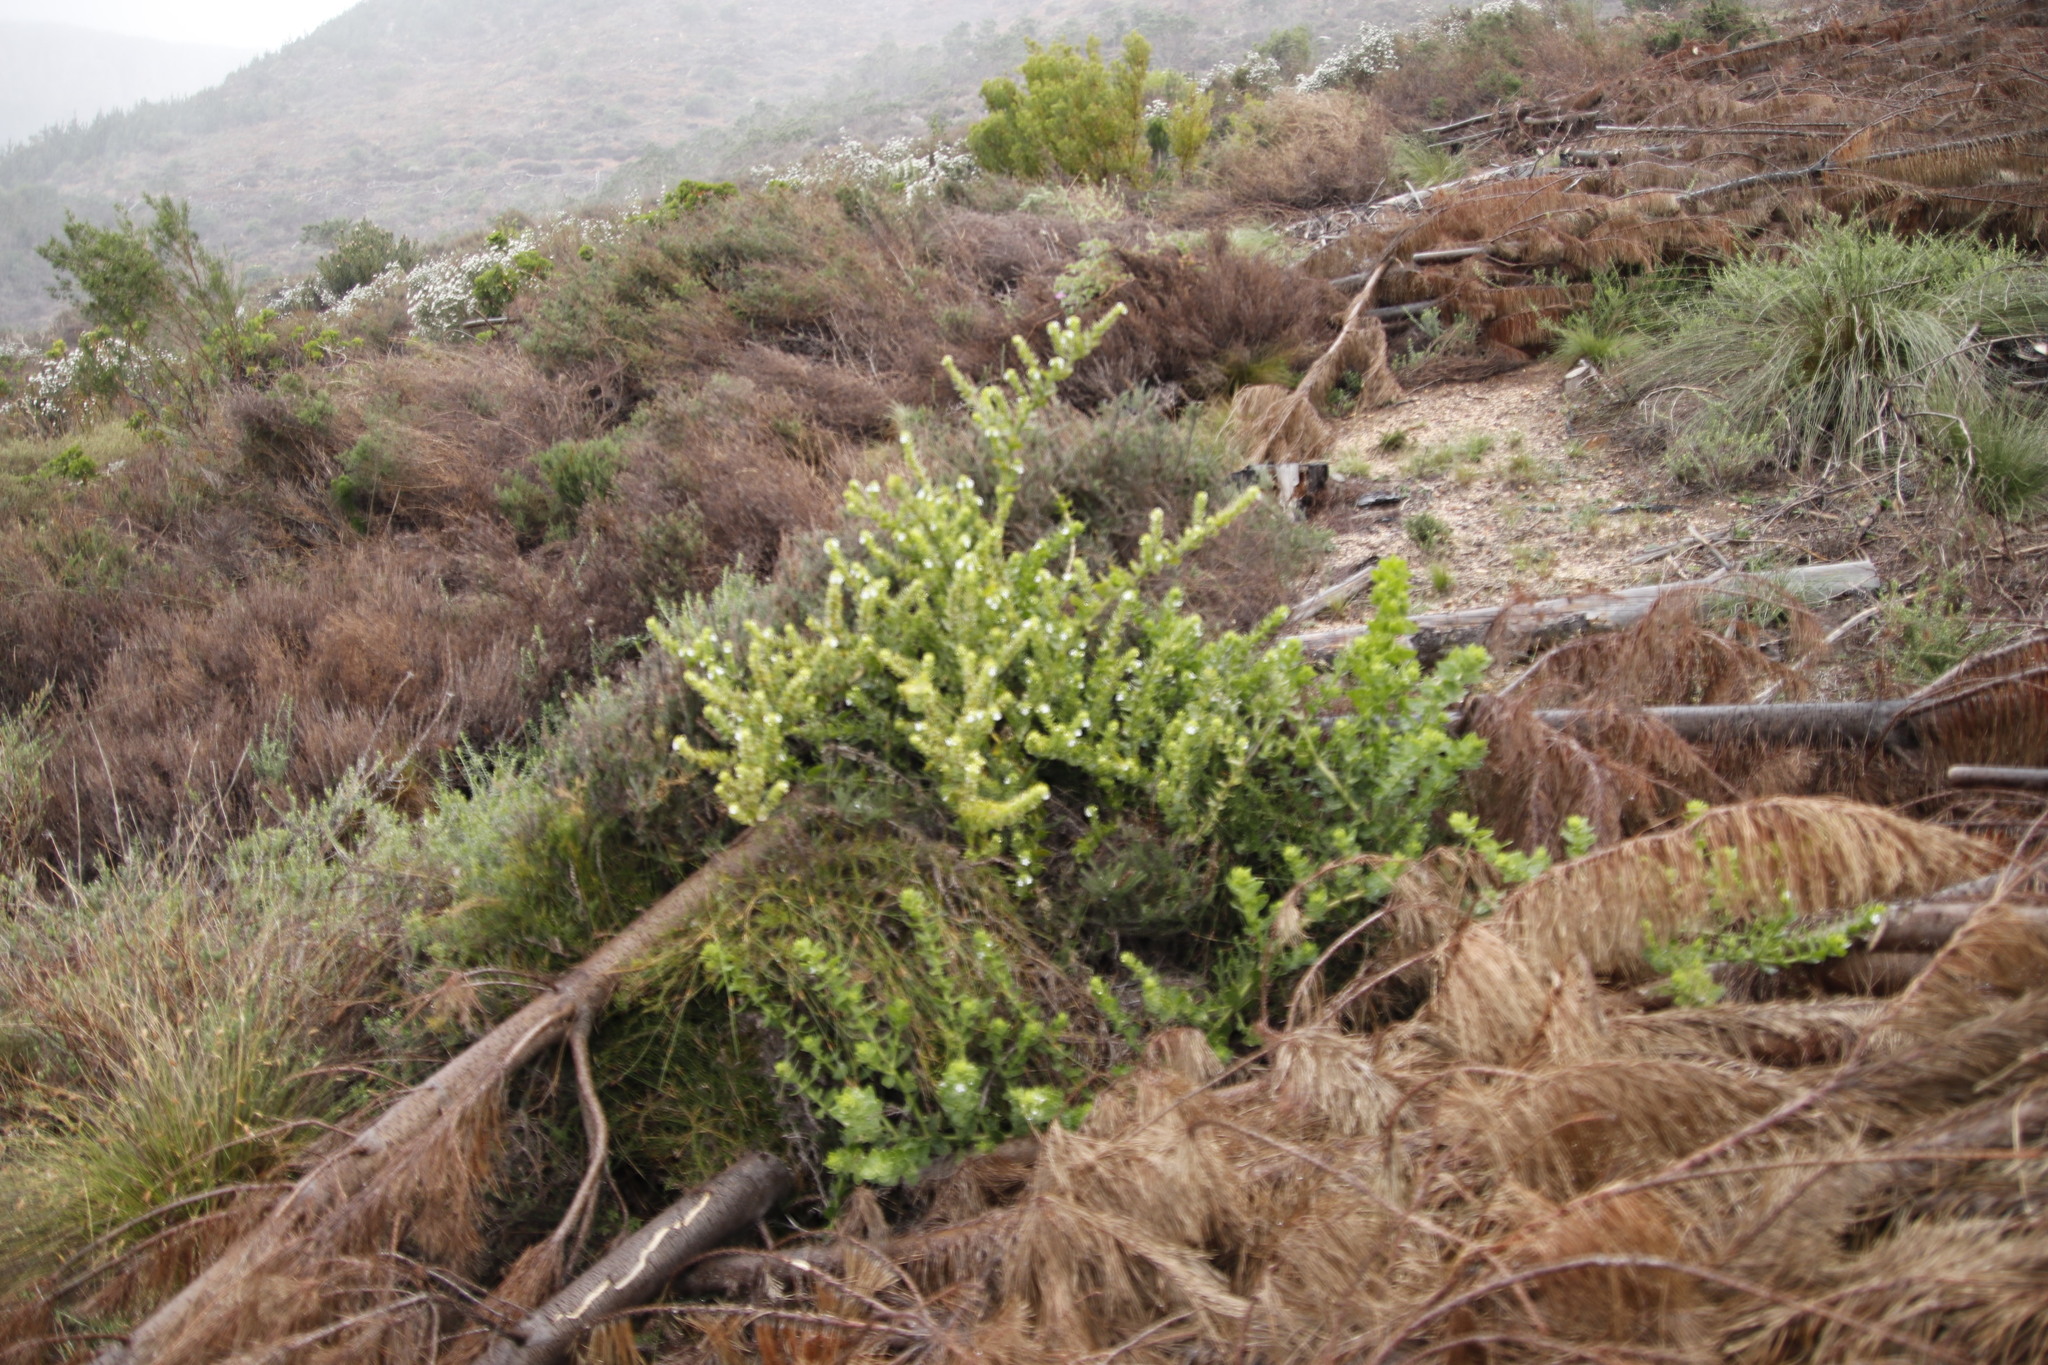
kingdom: Plantae
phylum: Tracheophyta
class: Magnoliopsida
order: Lamiales
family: Scrophulariaceae
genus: Oftia
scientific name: Oftia africana
